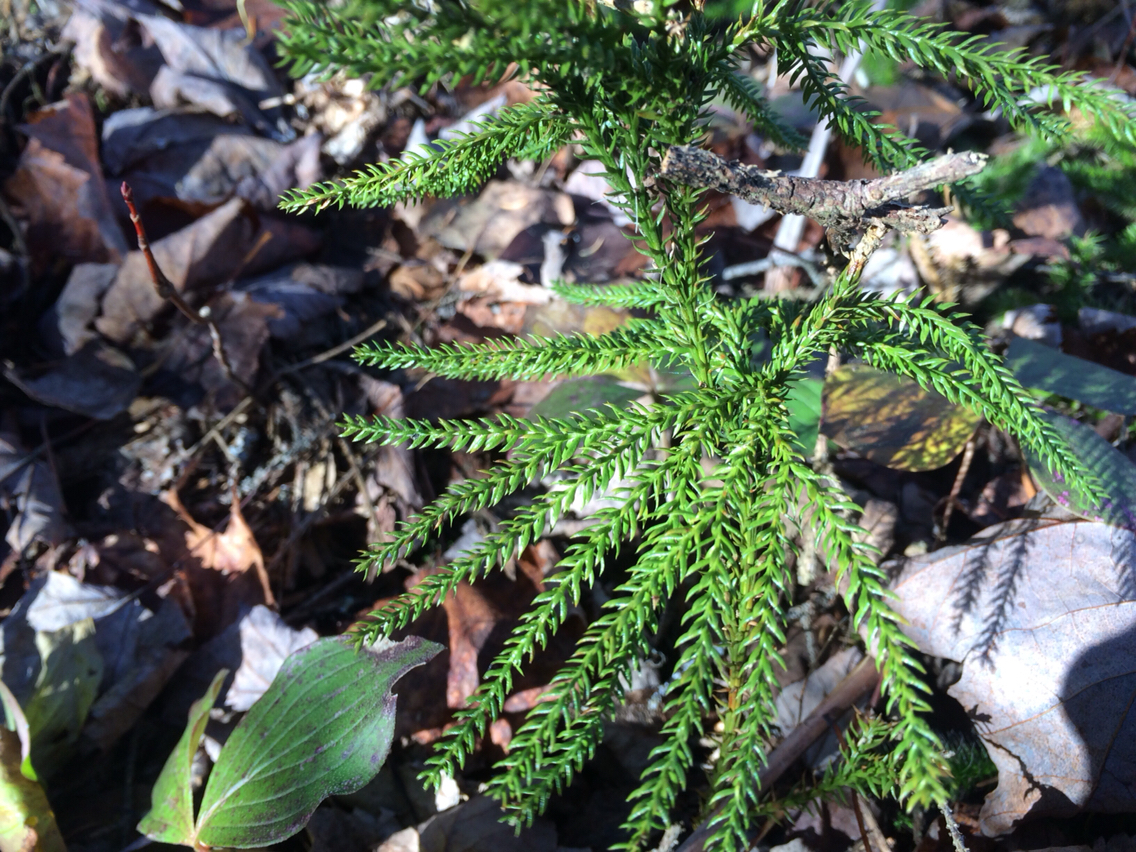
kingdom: Plantae
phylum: Tracheophyta
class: Lycopodiopsida
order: Lycopodiales
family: Lycopodiaceae
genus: Dendrolycopodium
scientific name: Dendrolycopodium obscurum
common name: Common ground-pine
